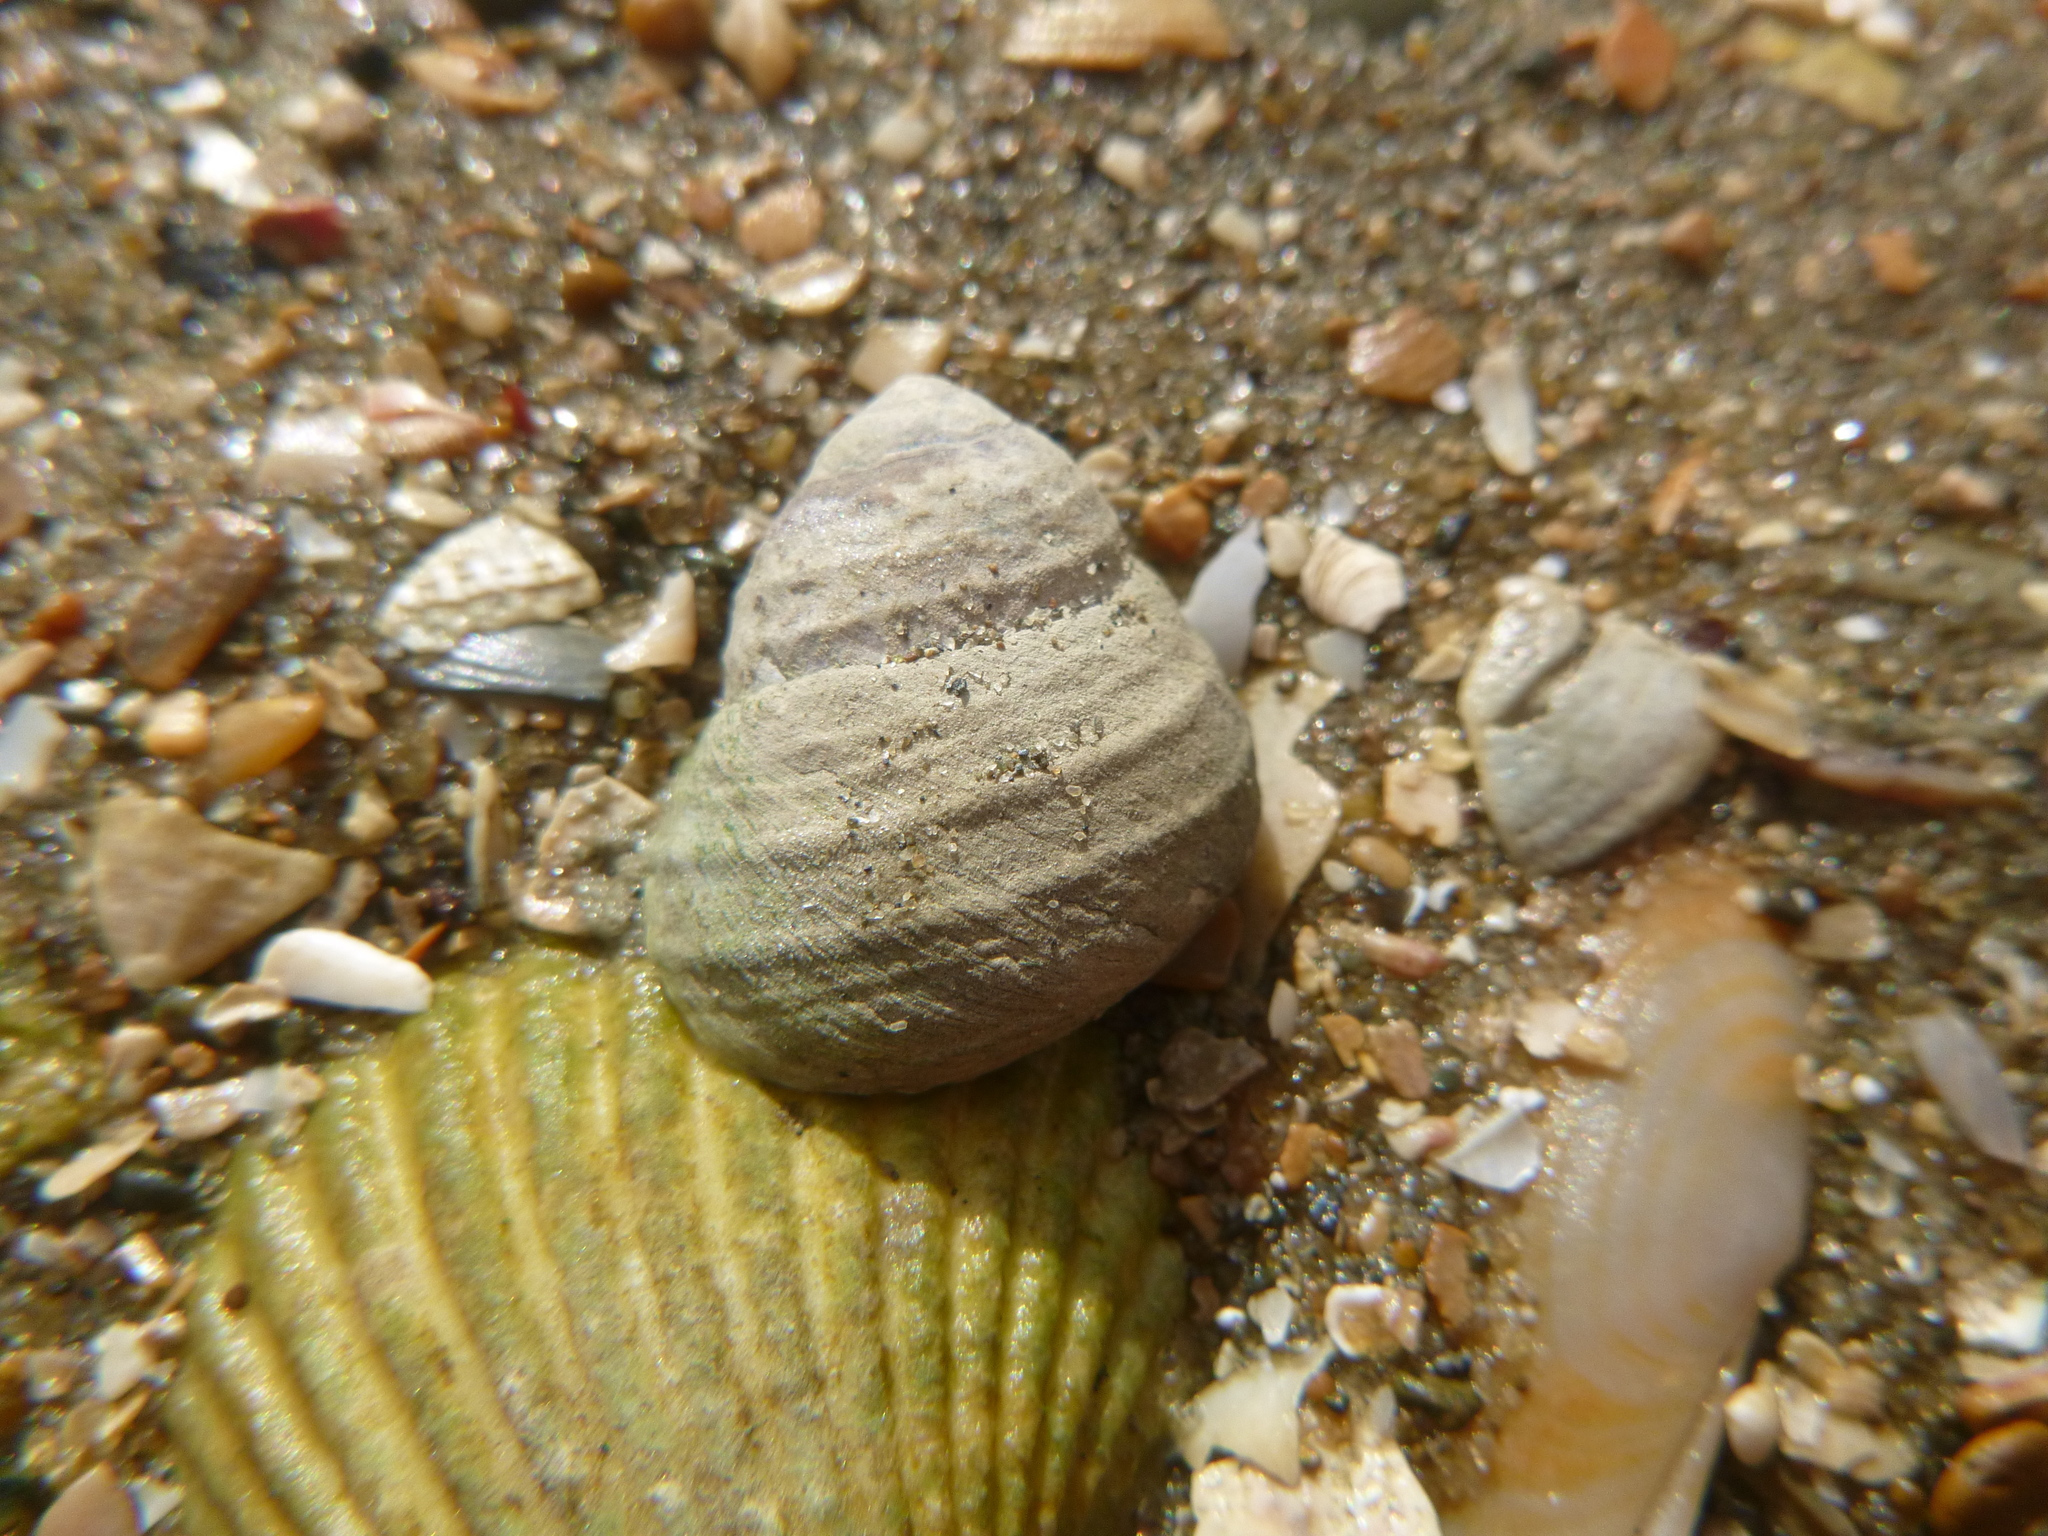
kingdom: Animalia
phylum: Mollusca
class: Gastropoda
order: Trochida
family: Trochidae
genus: Diloma
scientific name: Diloma subrostratum
